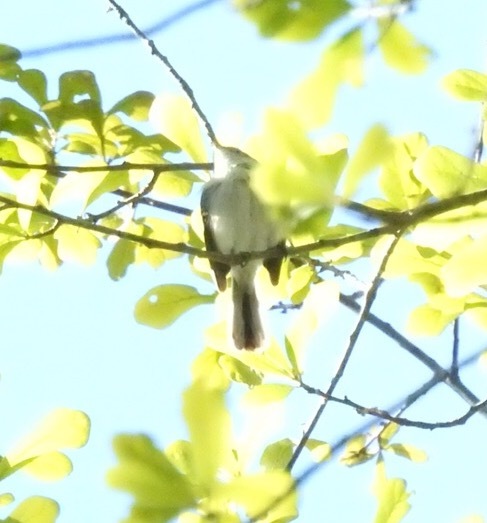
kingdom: Animalia
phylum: Chordata
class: Aves
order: Passeriformes
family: Polioptilidae
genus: Polioptila
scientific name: Polioptila caerulea
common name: Blue-gray gnatcatcher
